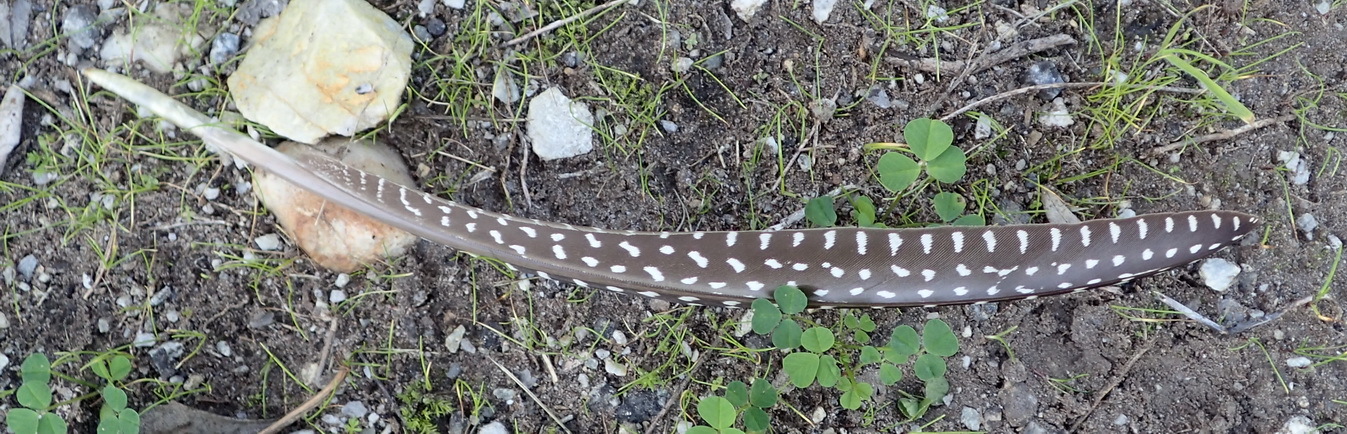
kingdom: Animalia
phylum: Chordata
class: Aves
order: Galliformes
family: Numididae
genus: Numida
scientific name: Numida meleagris
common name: Helmeted guineafowl
